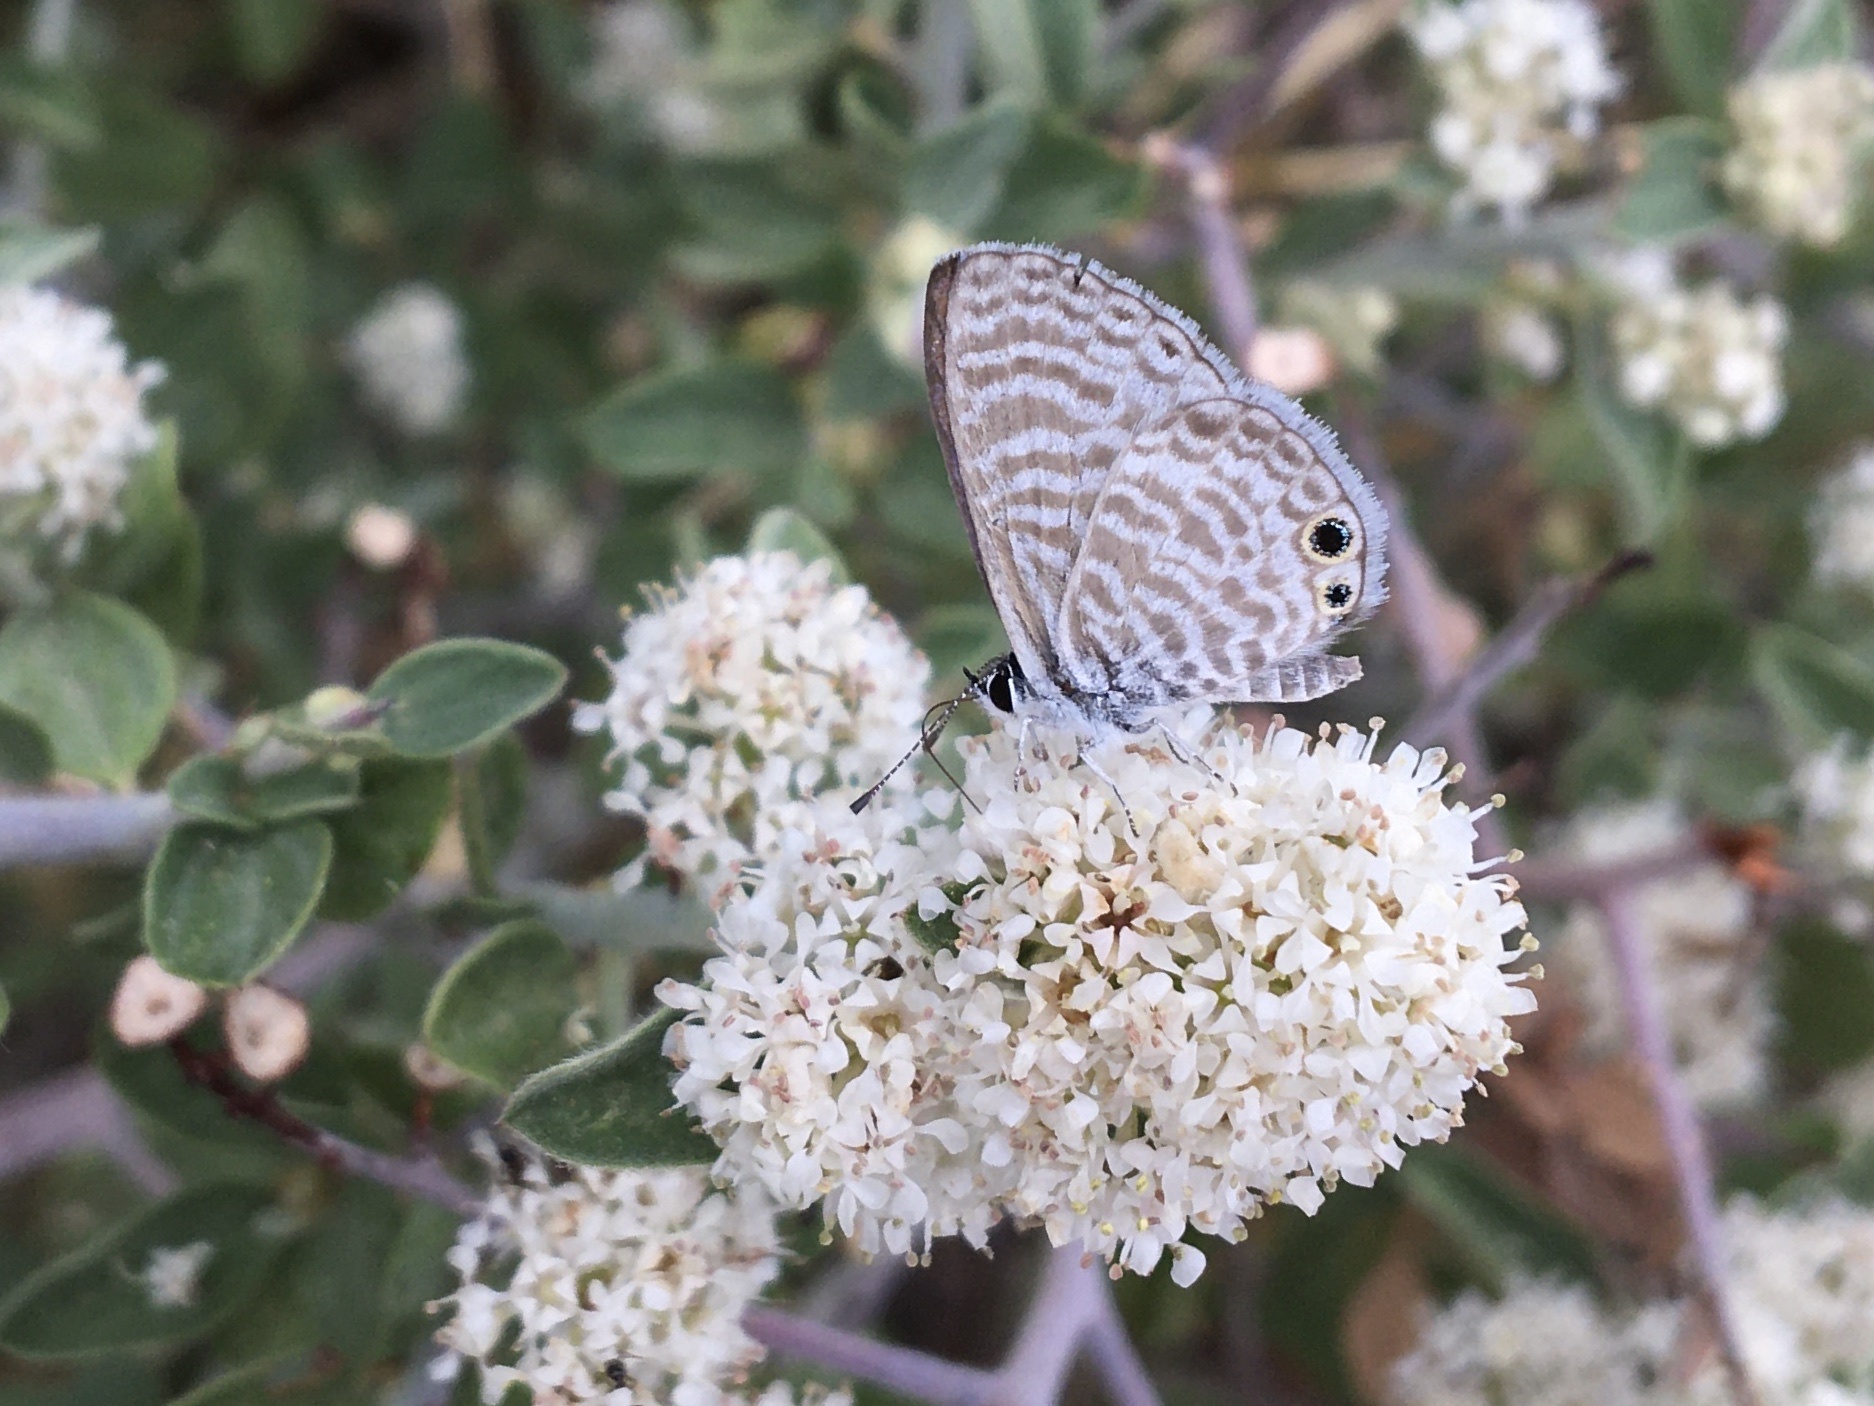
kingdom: Animalia
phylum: Arthropoda
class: Insecta
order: Lepidoptera
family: Lycaenidae
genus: Leptotes
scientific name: Leptotes marina
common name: Marine blue
